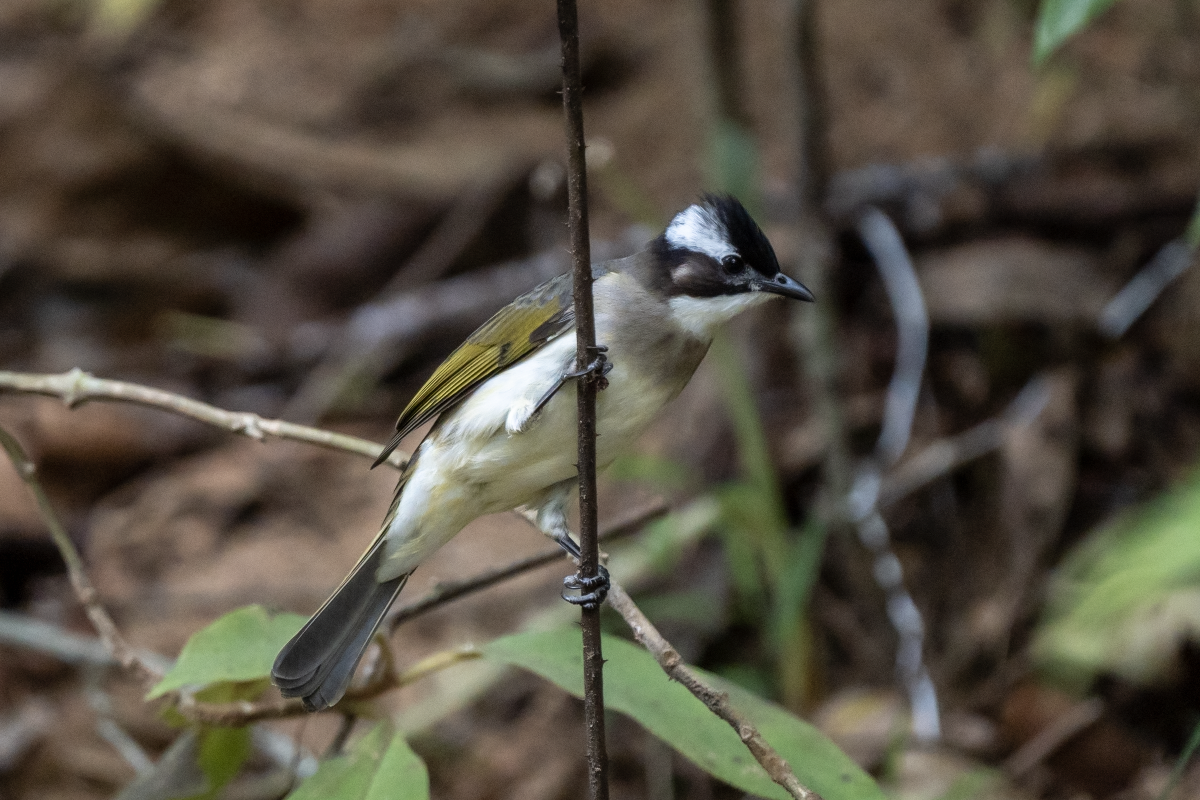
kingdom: Animalia
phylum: Chordata
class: Aves
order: Passeriformes
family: Pycnonotidae
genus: Pycnonotus
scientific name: Pycnonotus sinensis
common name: Light-vented bulbul
